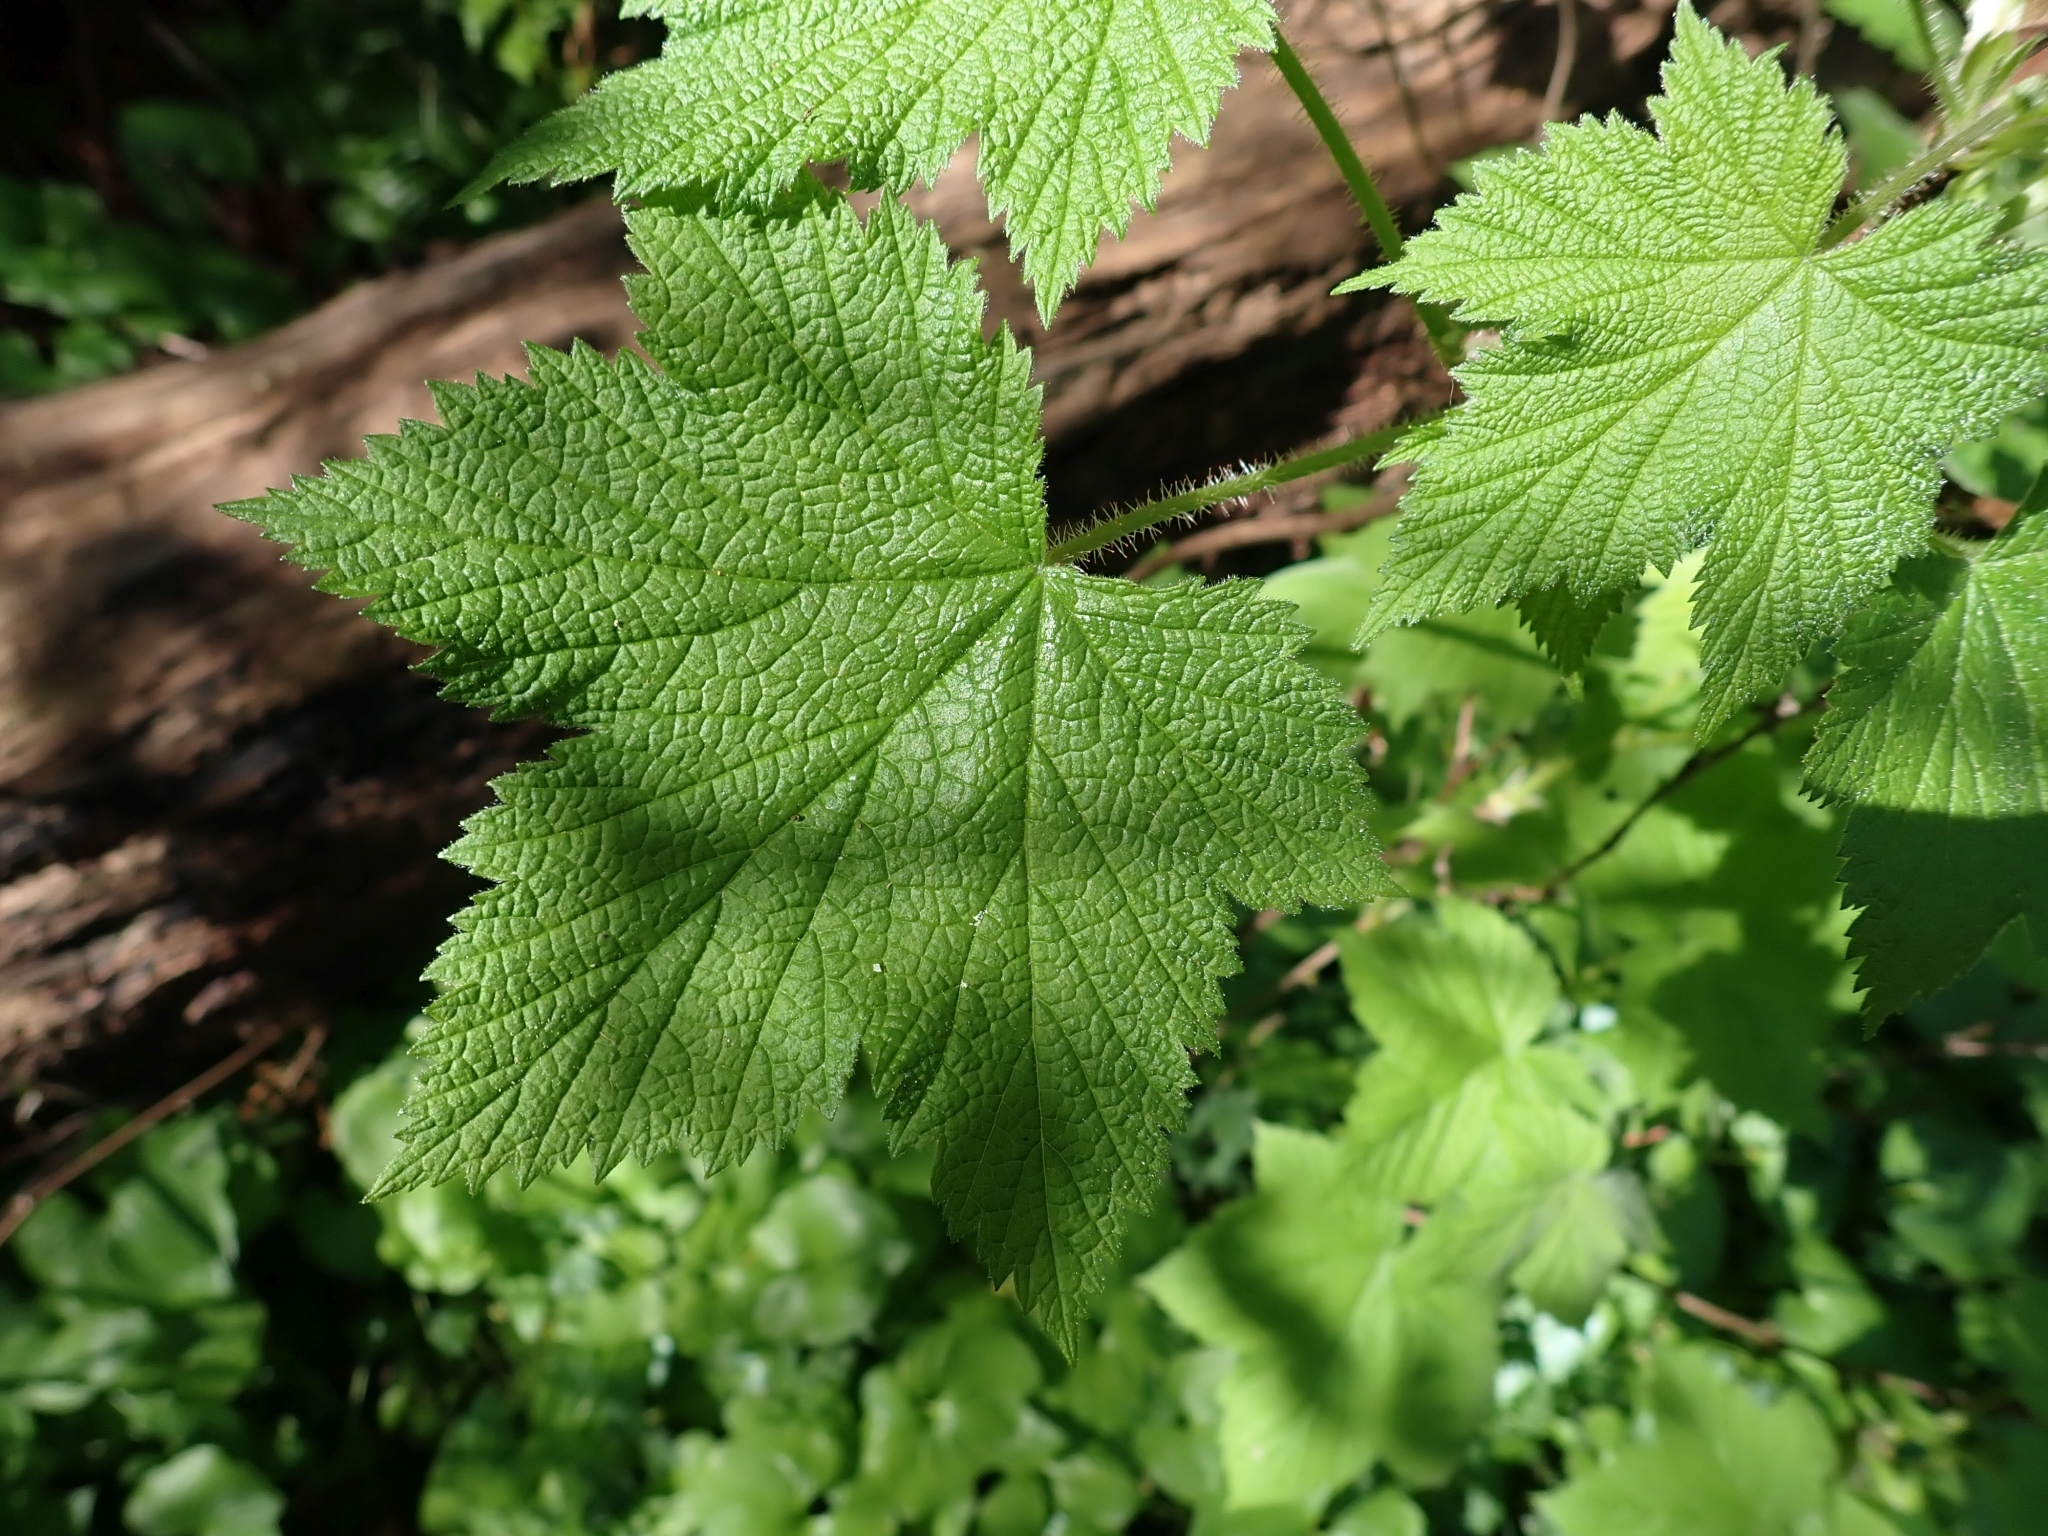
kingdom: Plantae
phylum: Tracheophyta
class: Magnoliopsida
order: Rosales
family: Rosaceae
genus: Rubus
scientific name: Rubus parviflorus
